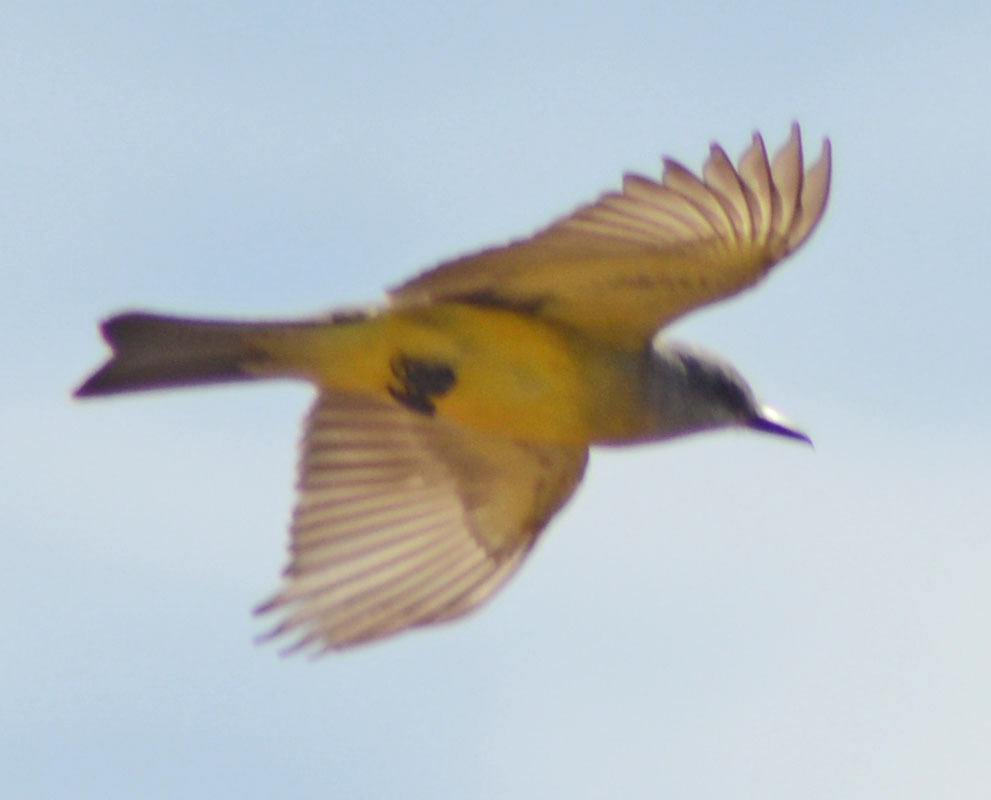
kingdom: Animalia
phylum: Chordata
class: Aves
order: Passeriformes
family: Tyrannidae
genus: Tyrannus
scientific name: Tyrannus melancholicus
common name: Tropical kingbird
